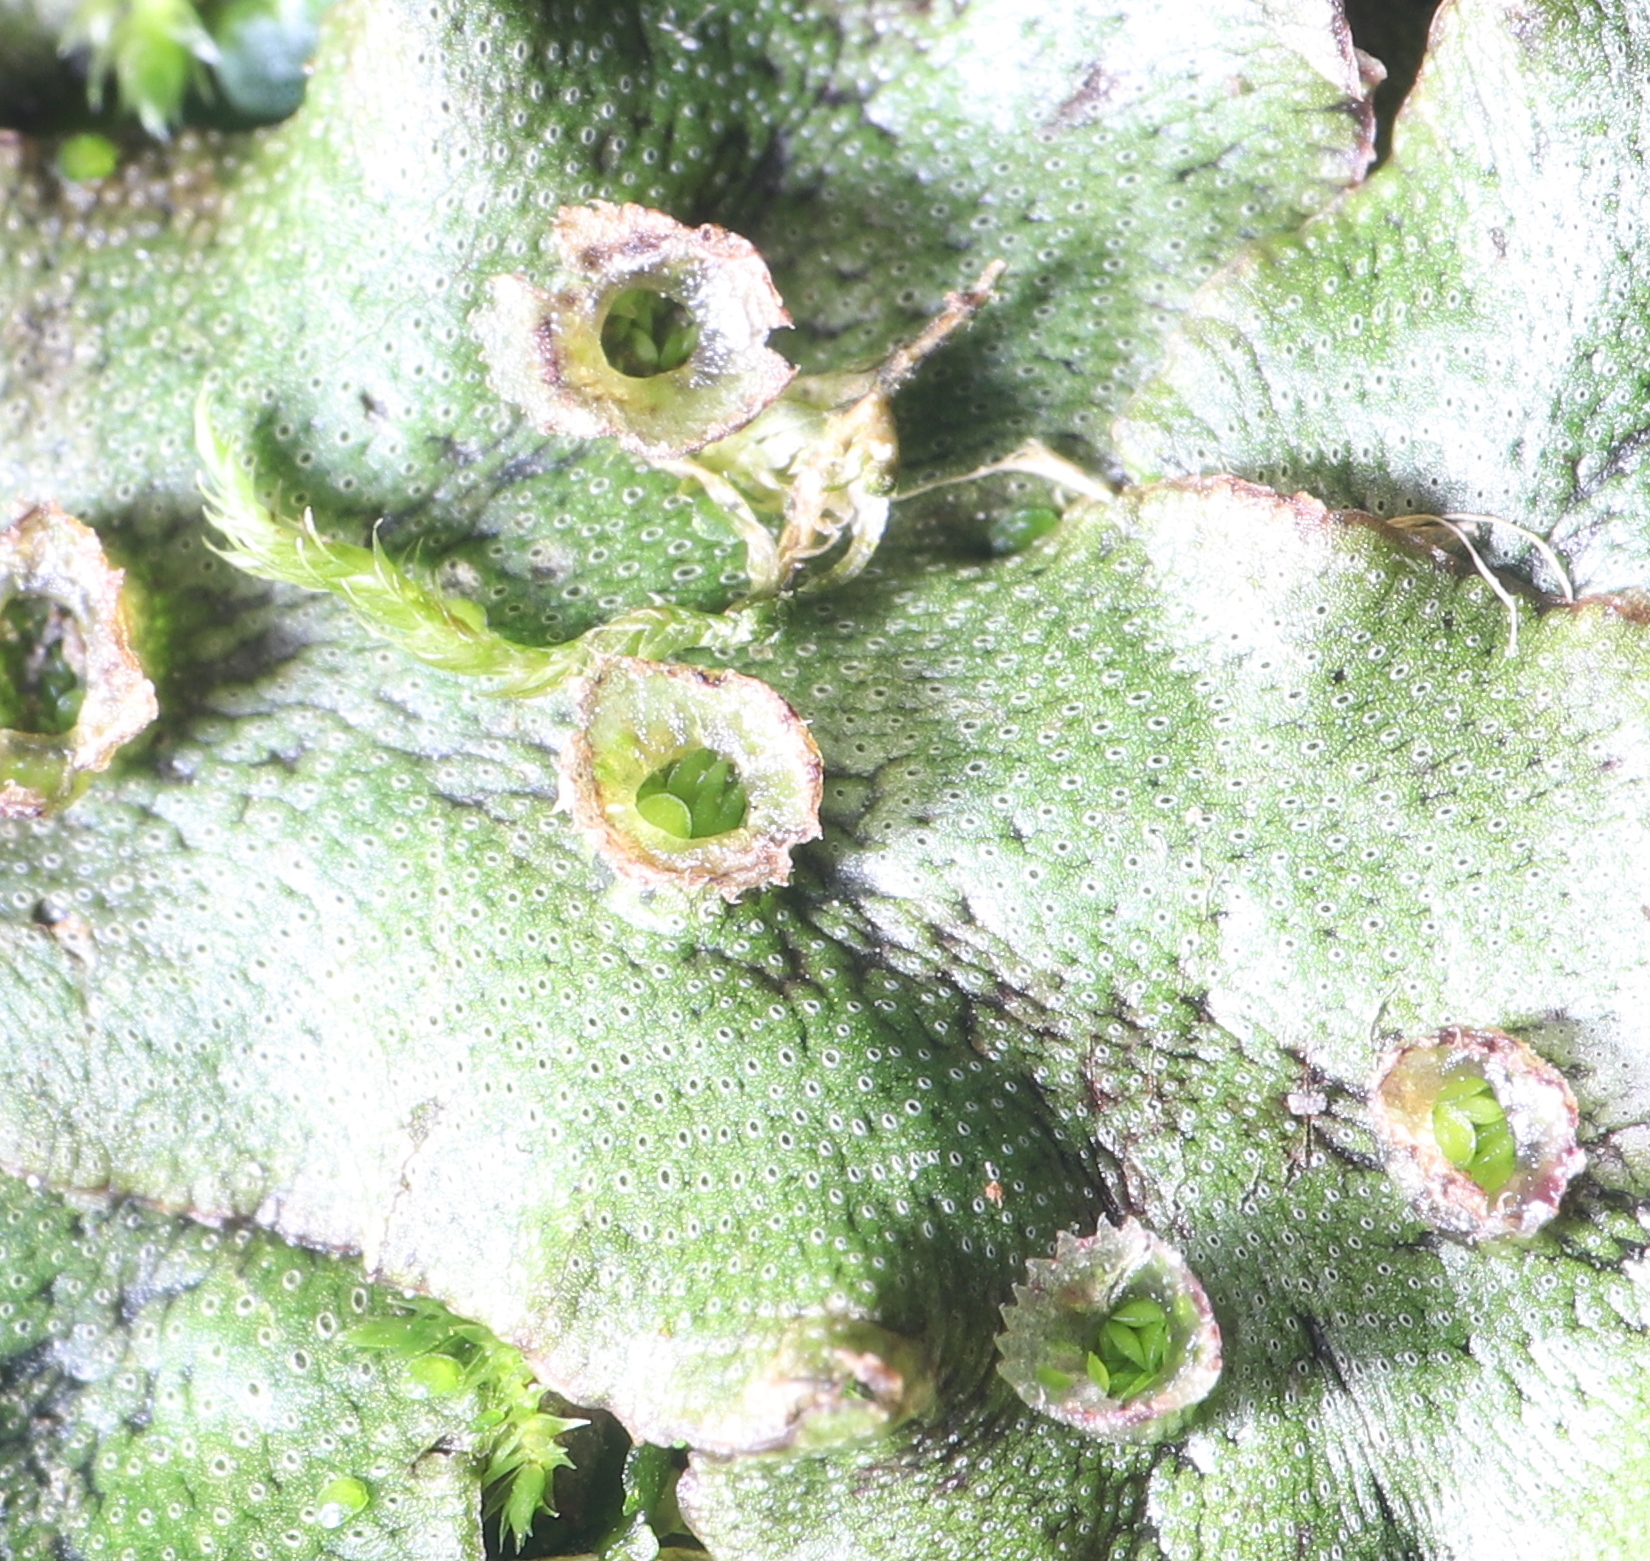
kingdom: Plantae
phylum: Marchantiophyta
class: Marchantiopsida
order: Marchantiales
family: Marchantiaceae
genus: Marchantia
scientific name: Marchantia polymorpha
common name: Common liverwort
